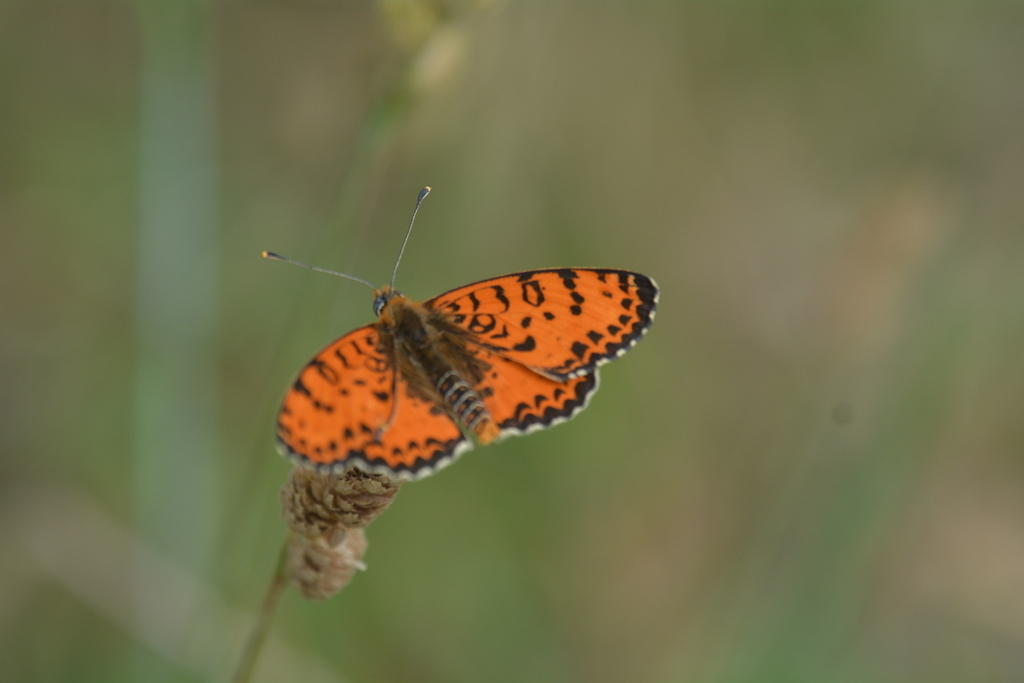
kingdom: Animalia
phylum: Arthropoda
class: Insecta
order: Lepidoptera
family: Nymphalidae
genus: Melitaea
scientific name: Melitaea didyma
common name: Spotted fritillary
